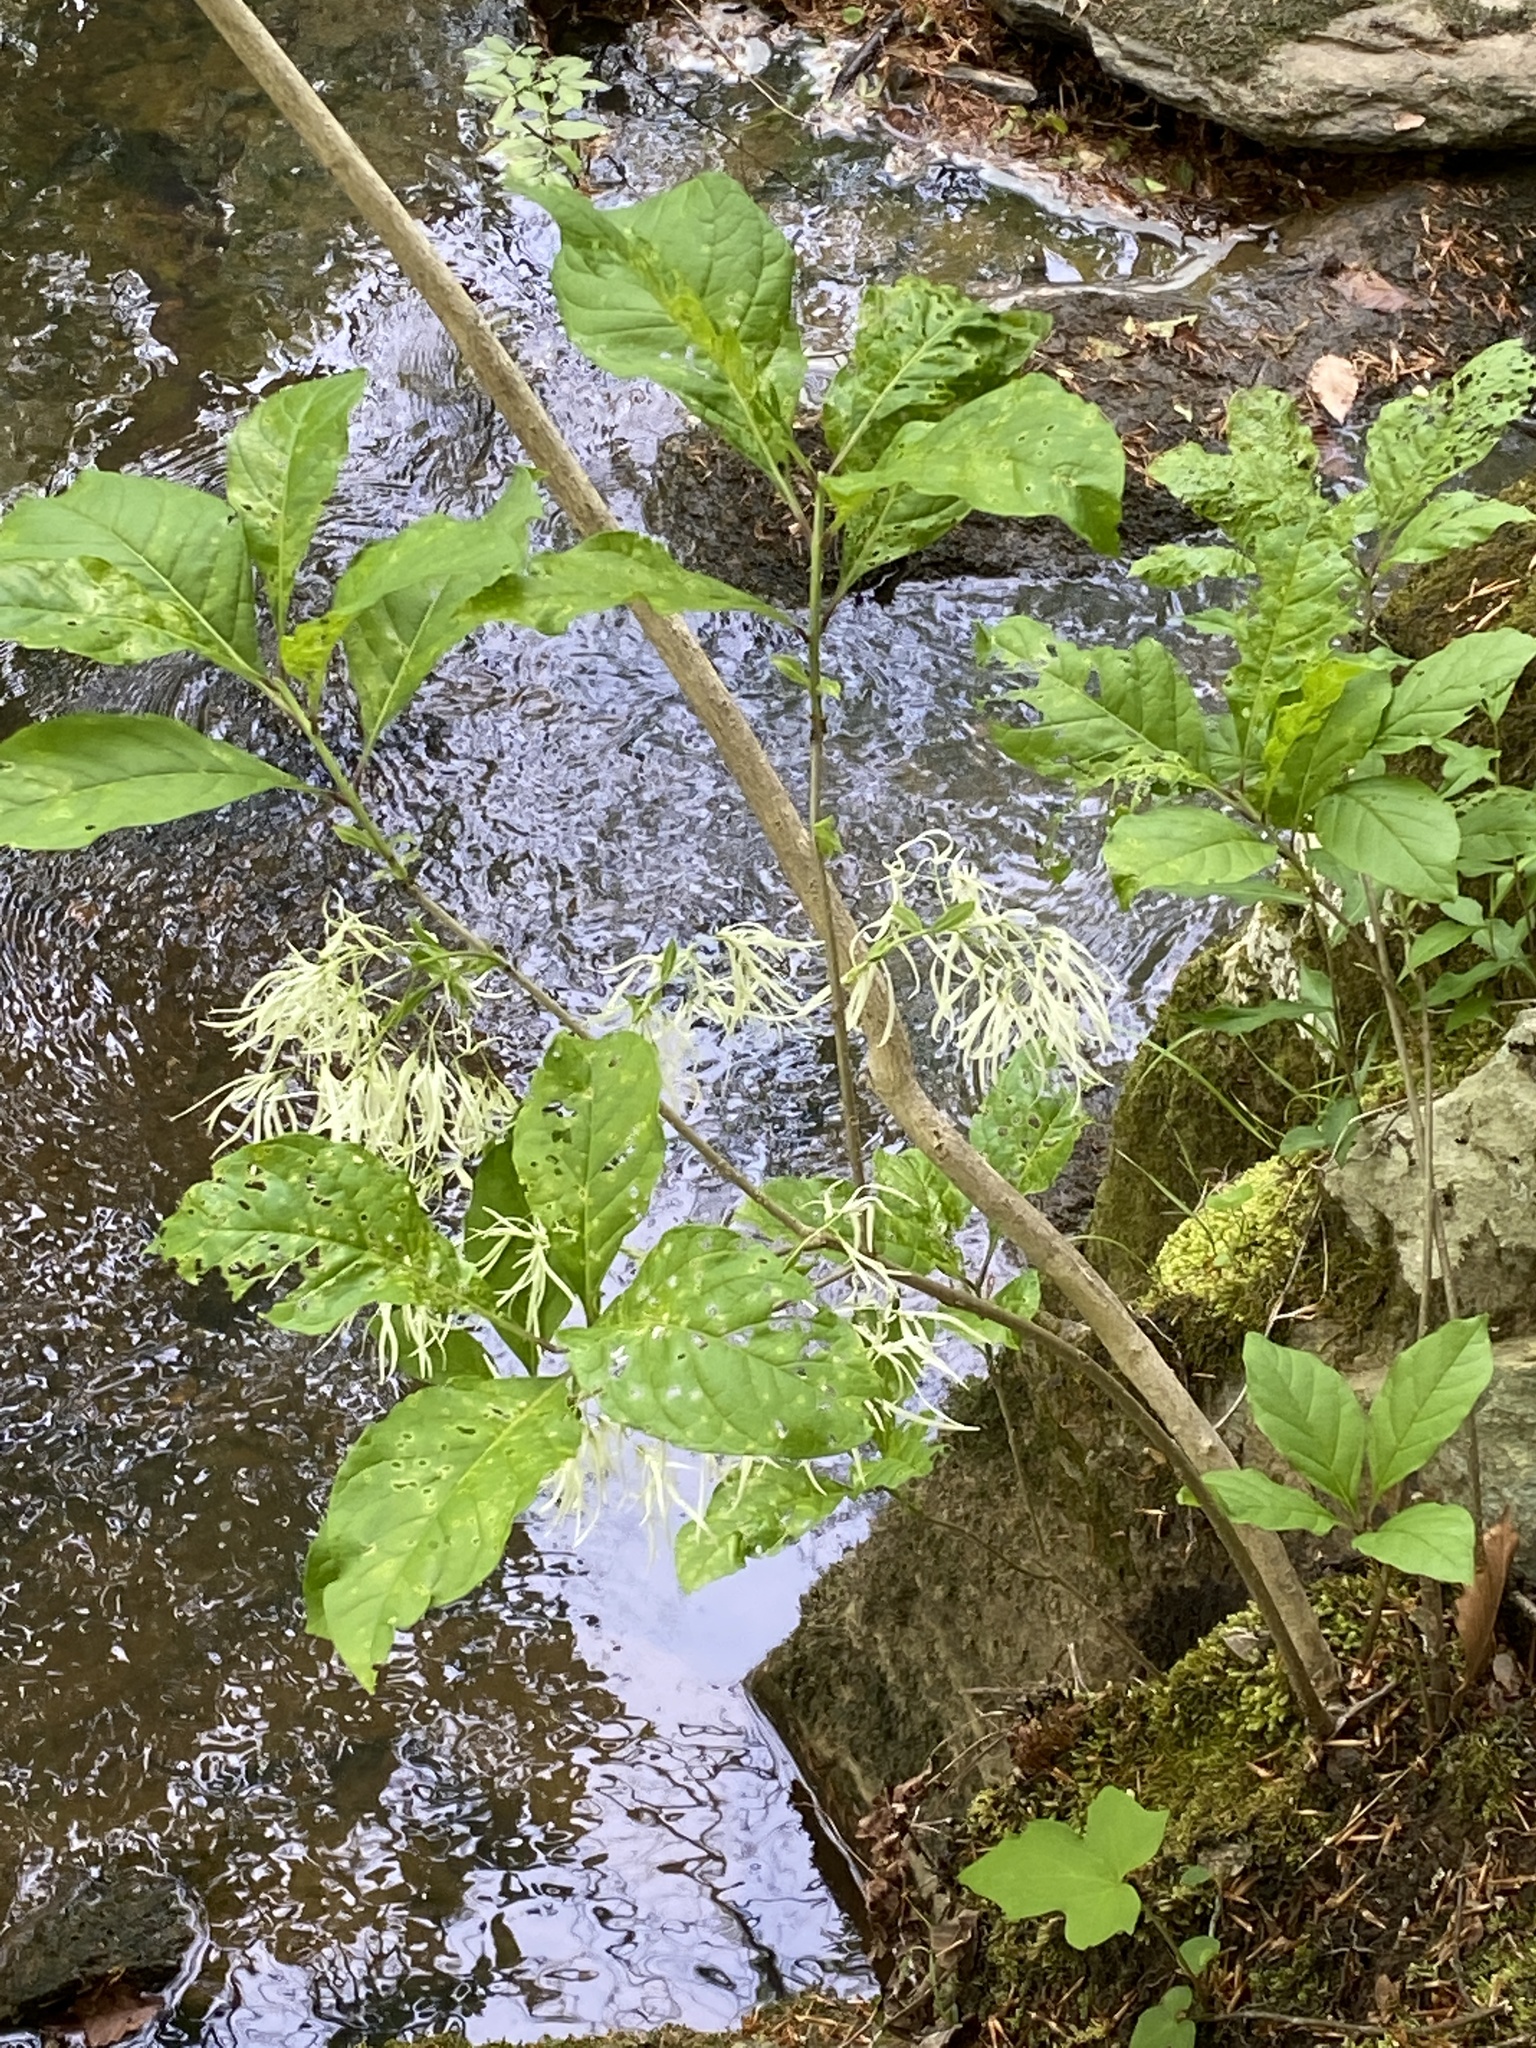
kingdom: Plantae
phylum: Tracheophyta
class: Magnoliopsida
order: Lamiales
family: Oleaceae
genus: Chionanthus
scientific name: Chionanthus virginicus
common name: American fringetree
